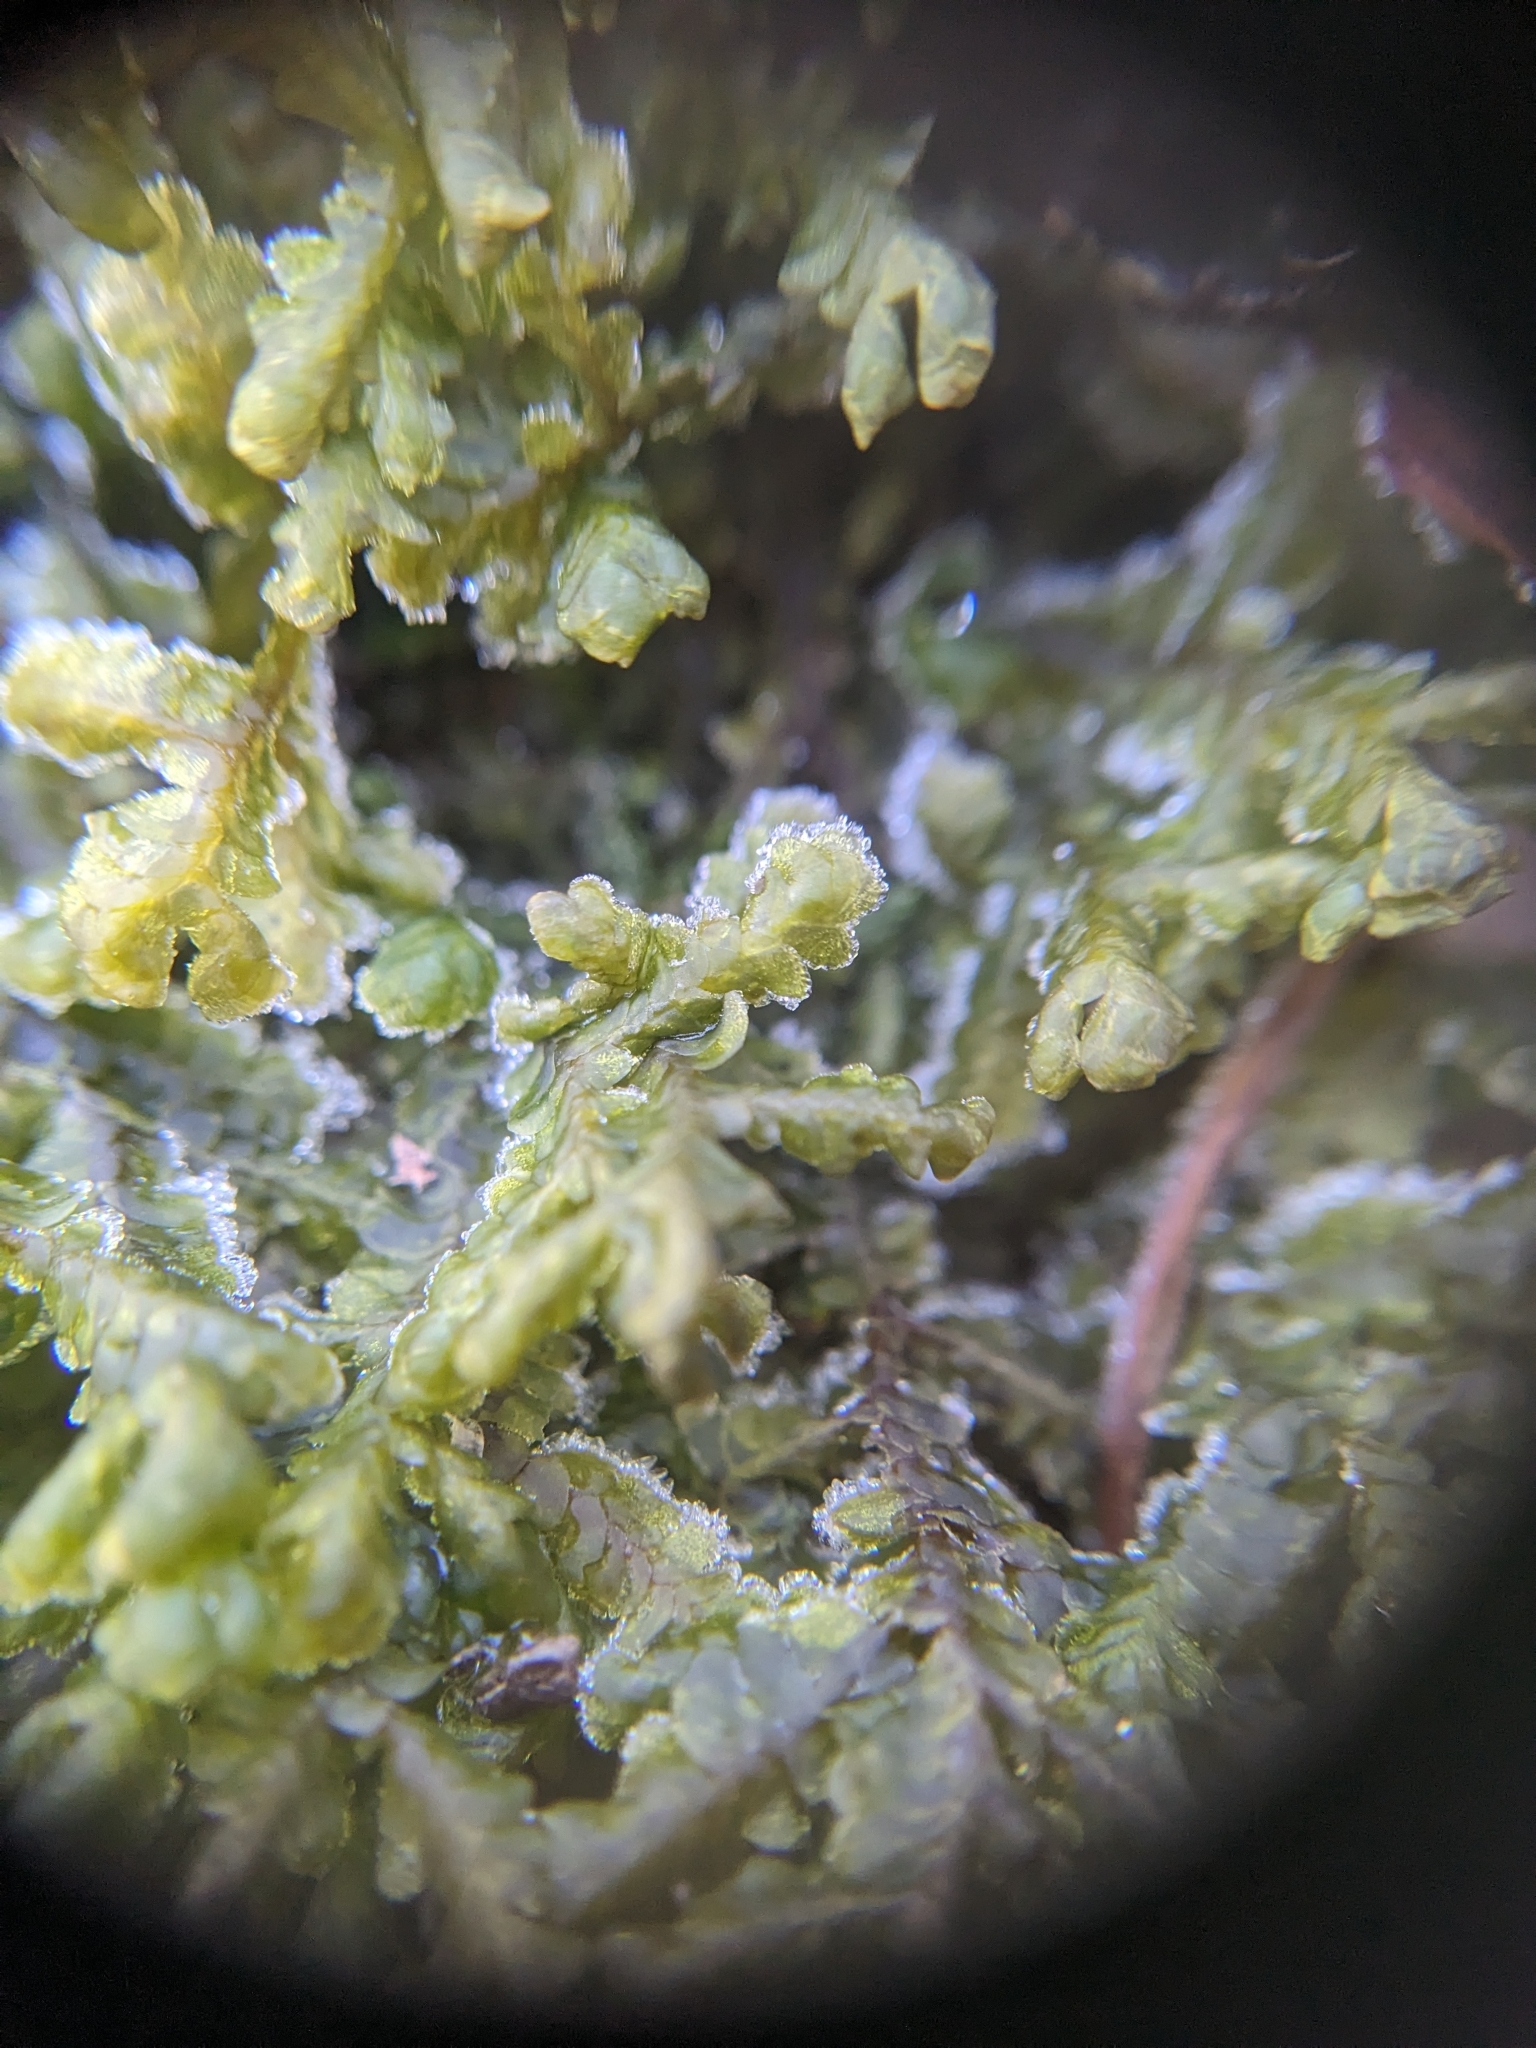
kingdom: Plantae
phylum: Marchantiophyta
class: Jungermanniopsida
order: Porellales
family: Porellaceae
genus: Porella
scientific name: Porella pinnata
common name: Pinnate scalewort
